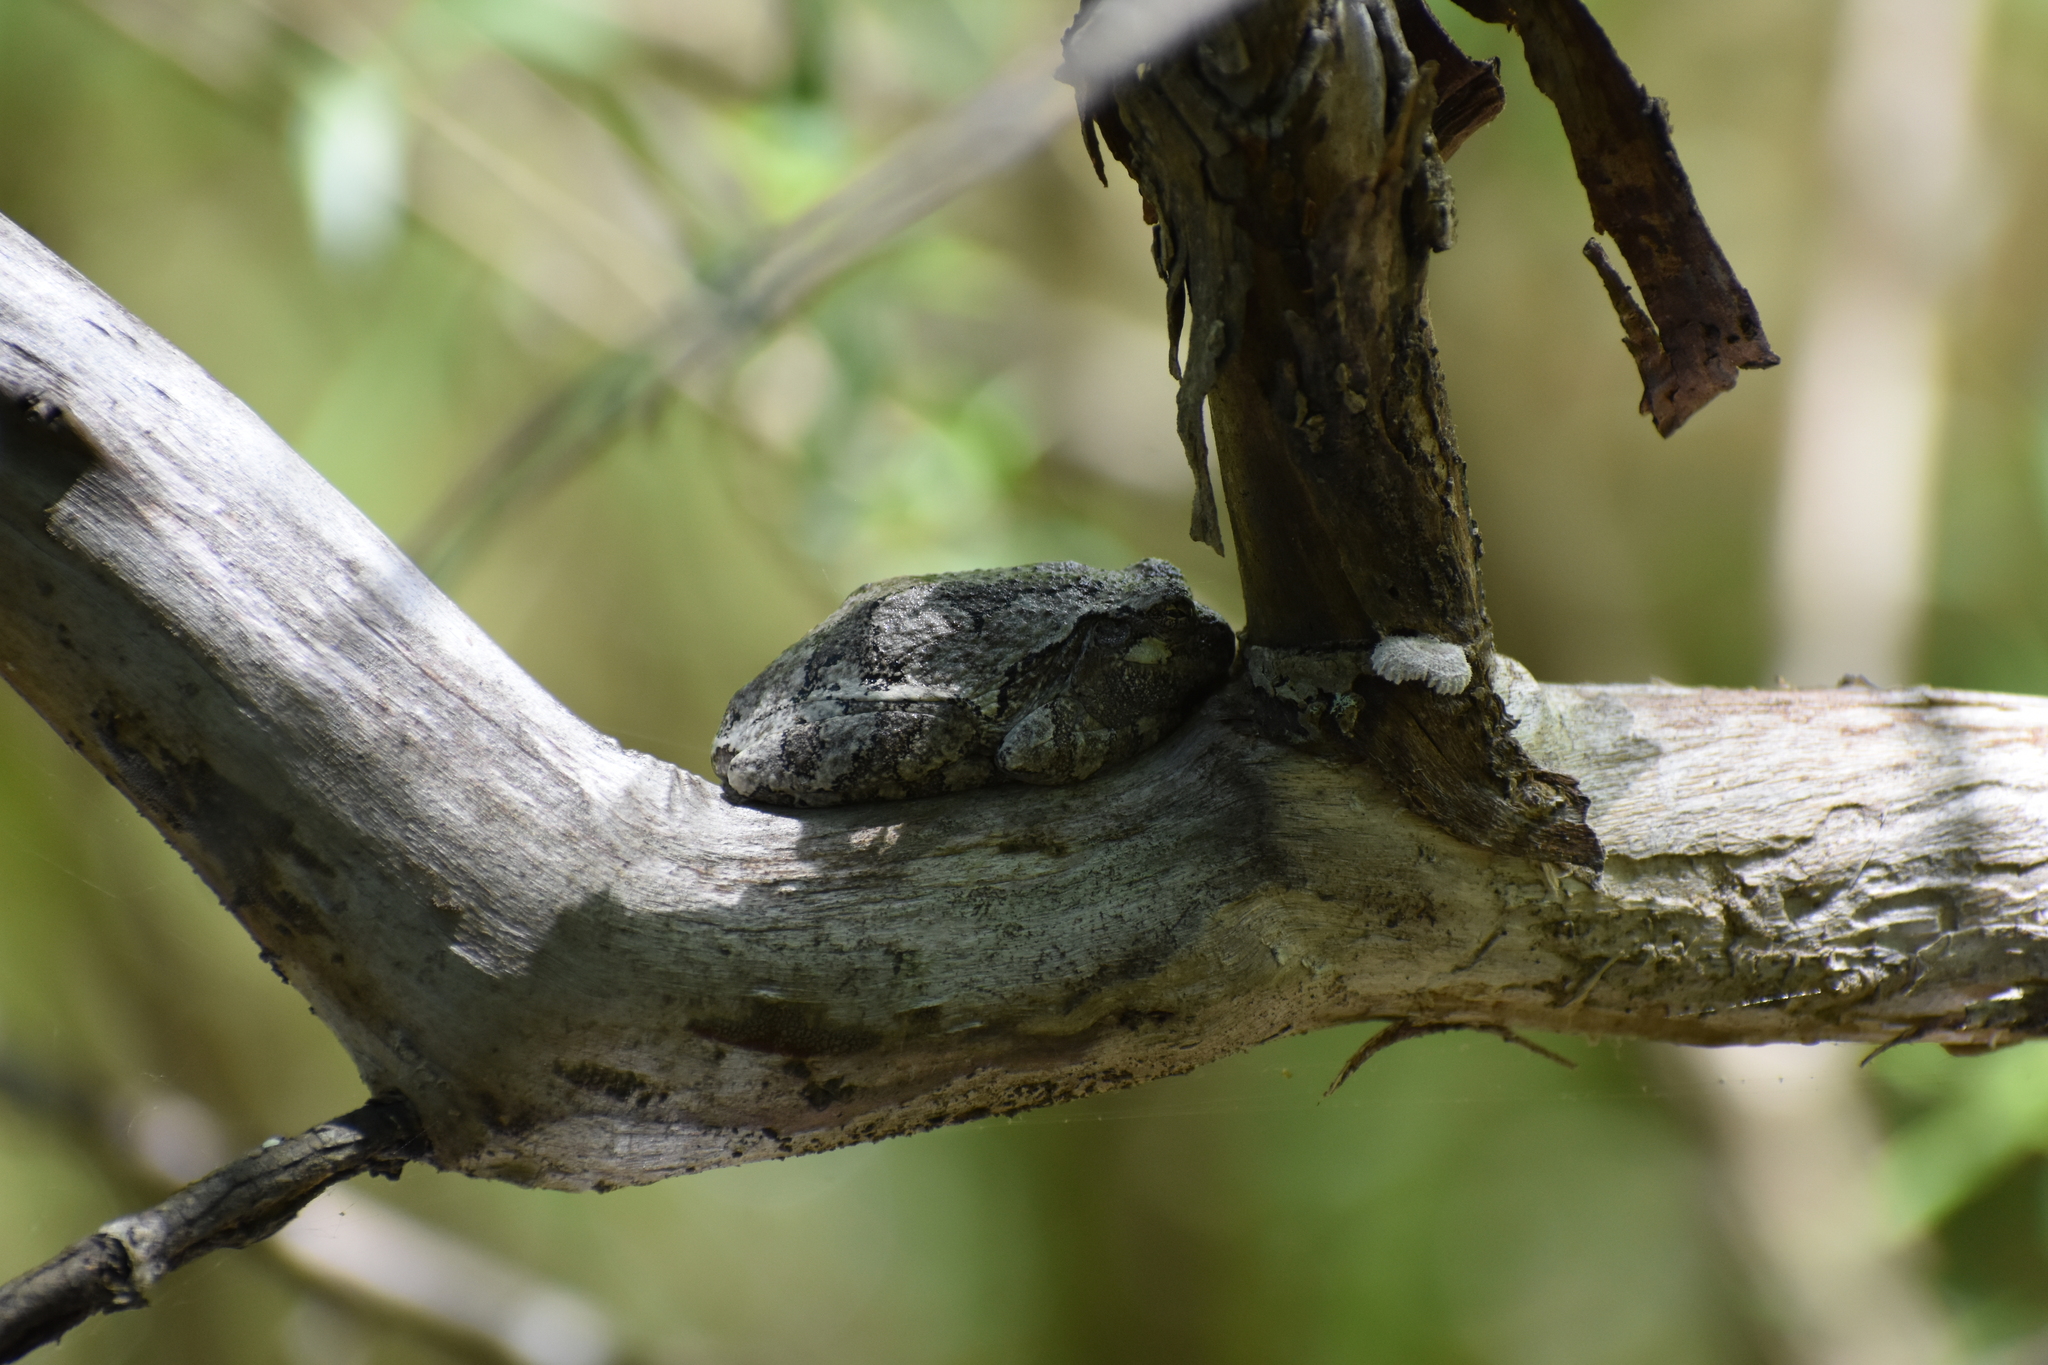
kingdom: Animalia
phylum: Chordata
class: Amphibia
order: Anura
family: Hylidae
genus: Hyla
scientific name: Hyla
